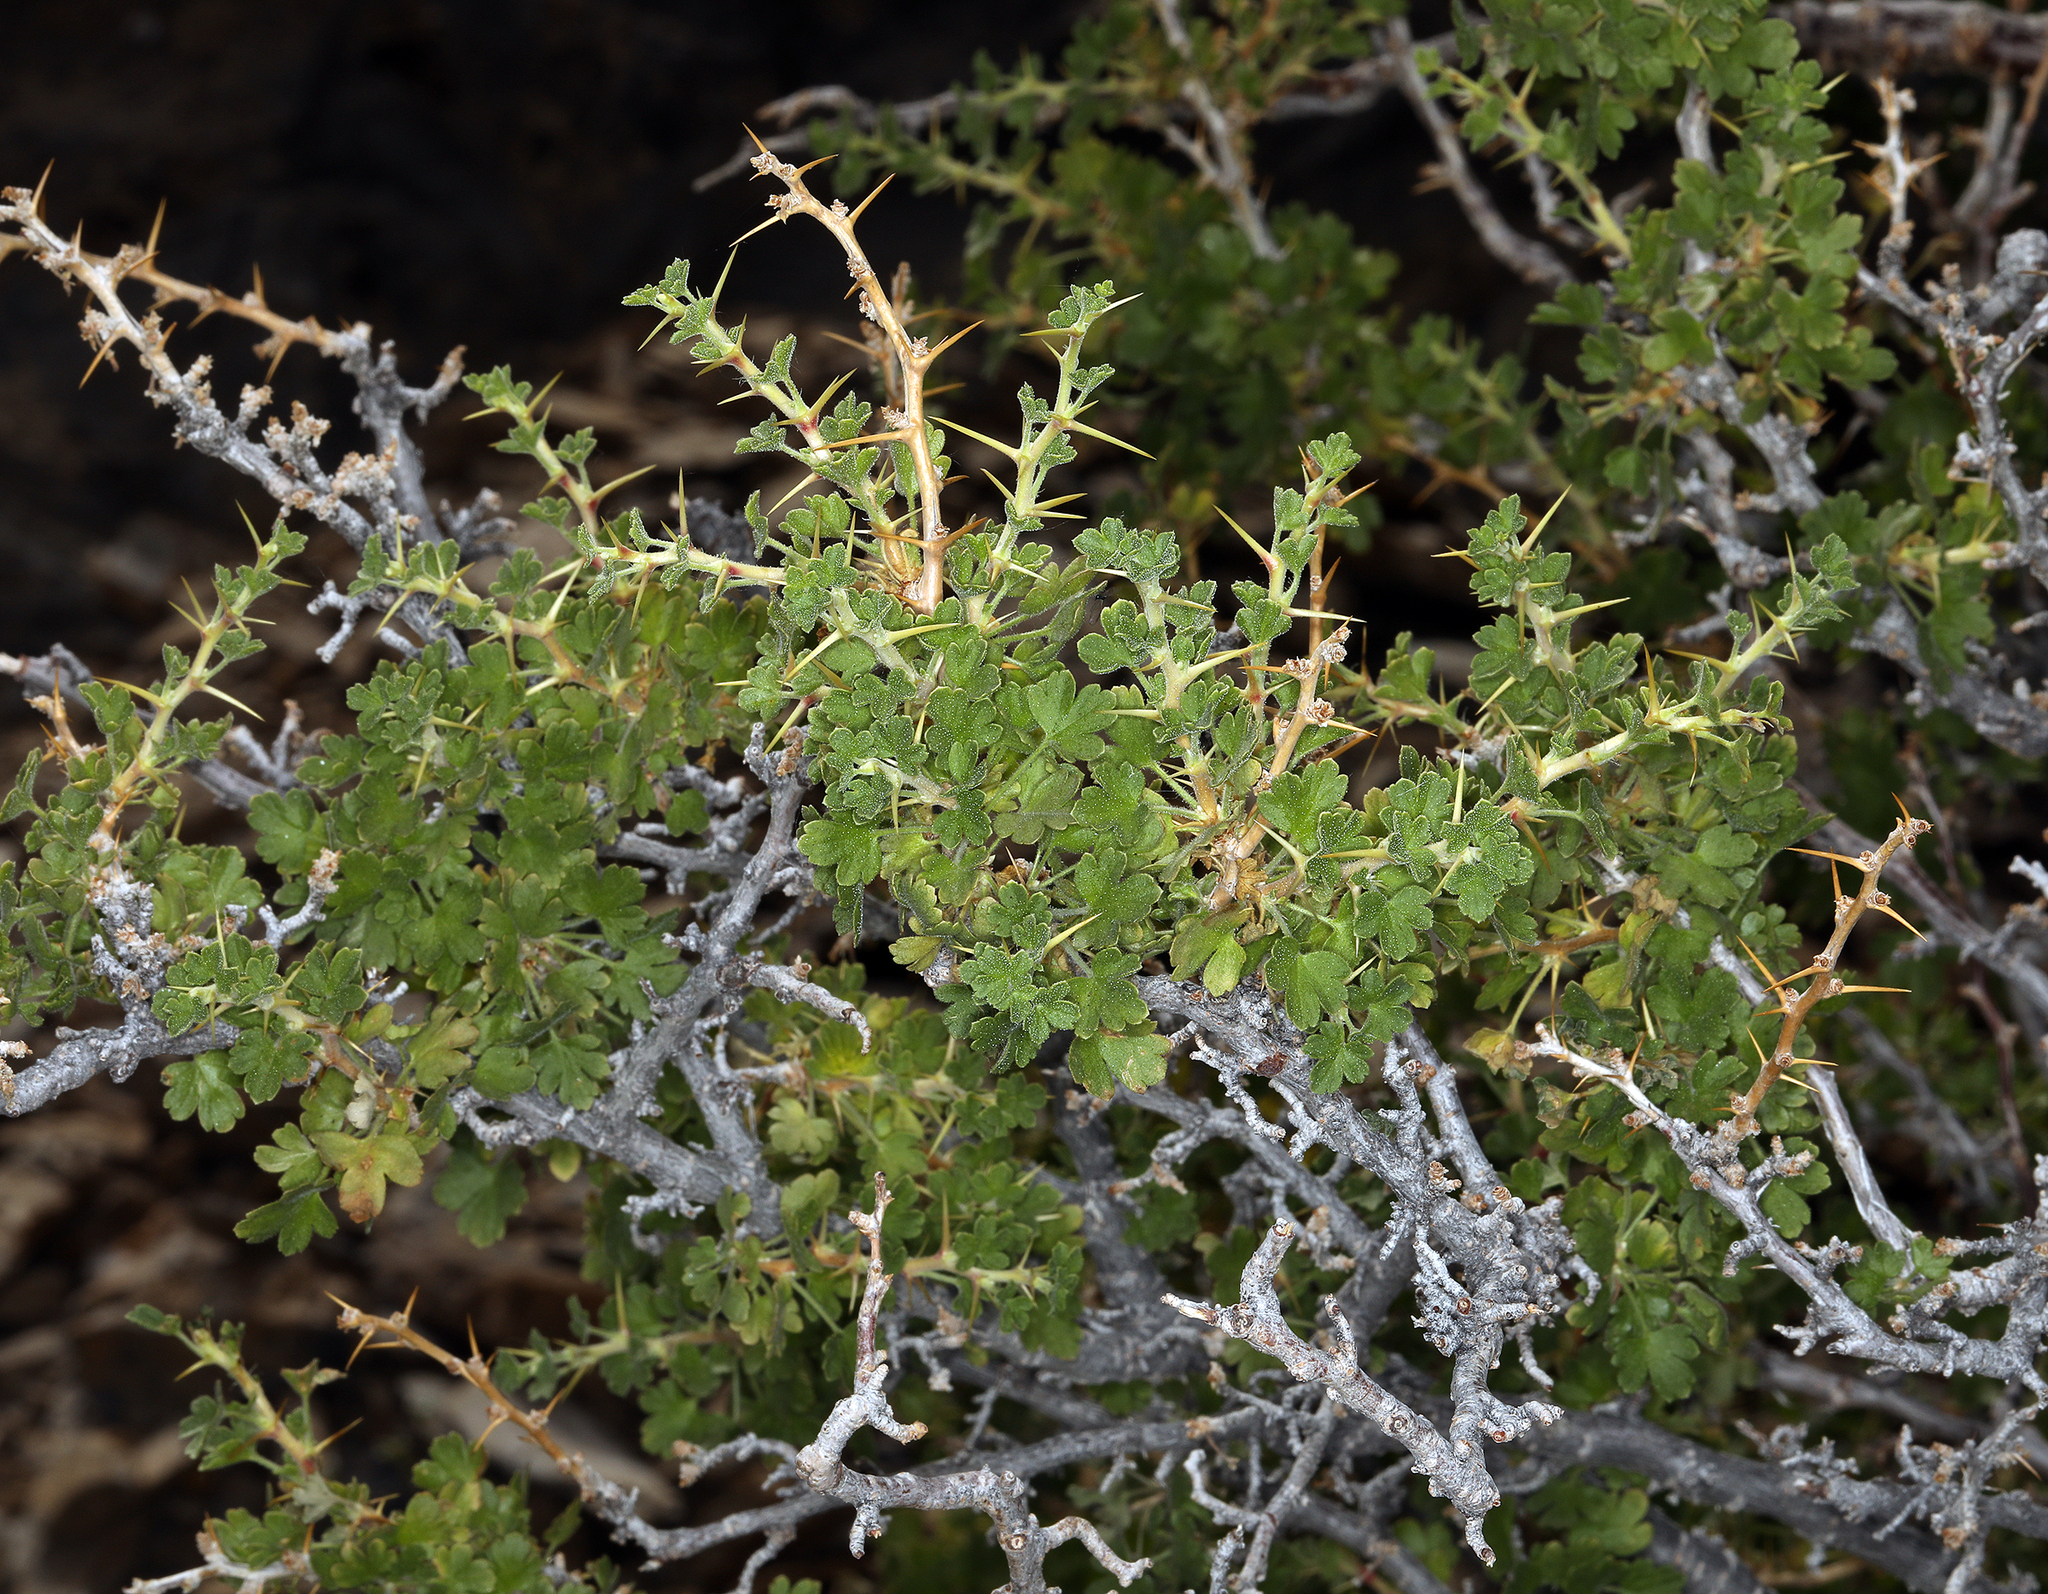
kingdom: Plantae
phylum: Tracheophyta
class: Magnoliopsida
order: Saxifragales
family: Grossulariaceae
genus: Ribes
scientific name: Ribes velutinum
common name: Desert gooseberry
